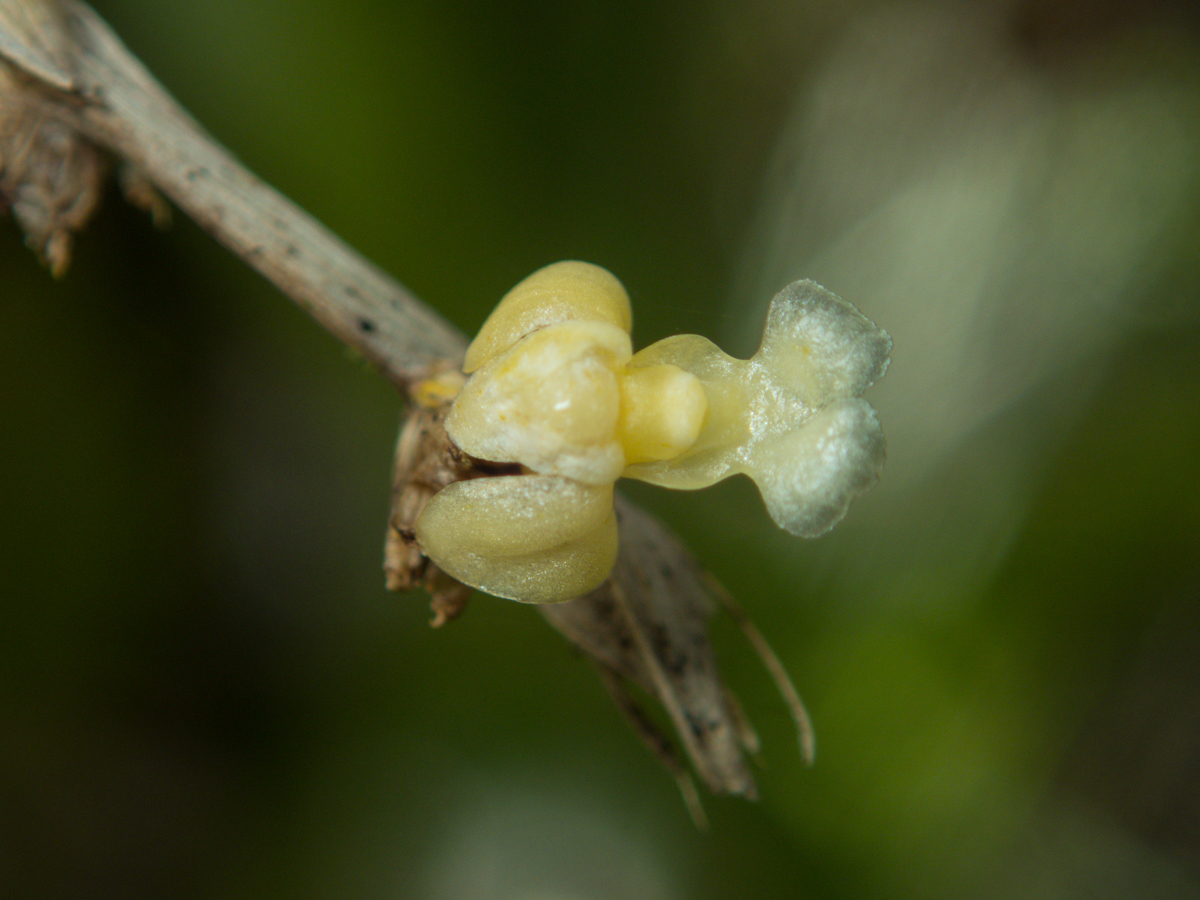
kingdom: Plantae
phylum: Tracheophyta
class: Liliopsida
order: Asparagales
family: Orchidaceae
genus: Dendrobium
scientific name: Dendrobium aloifolium
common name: Aloe-like dendrobium
